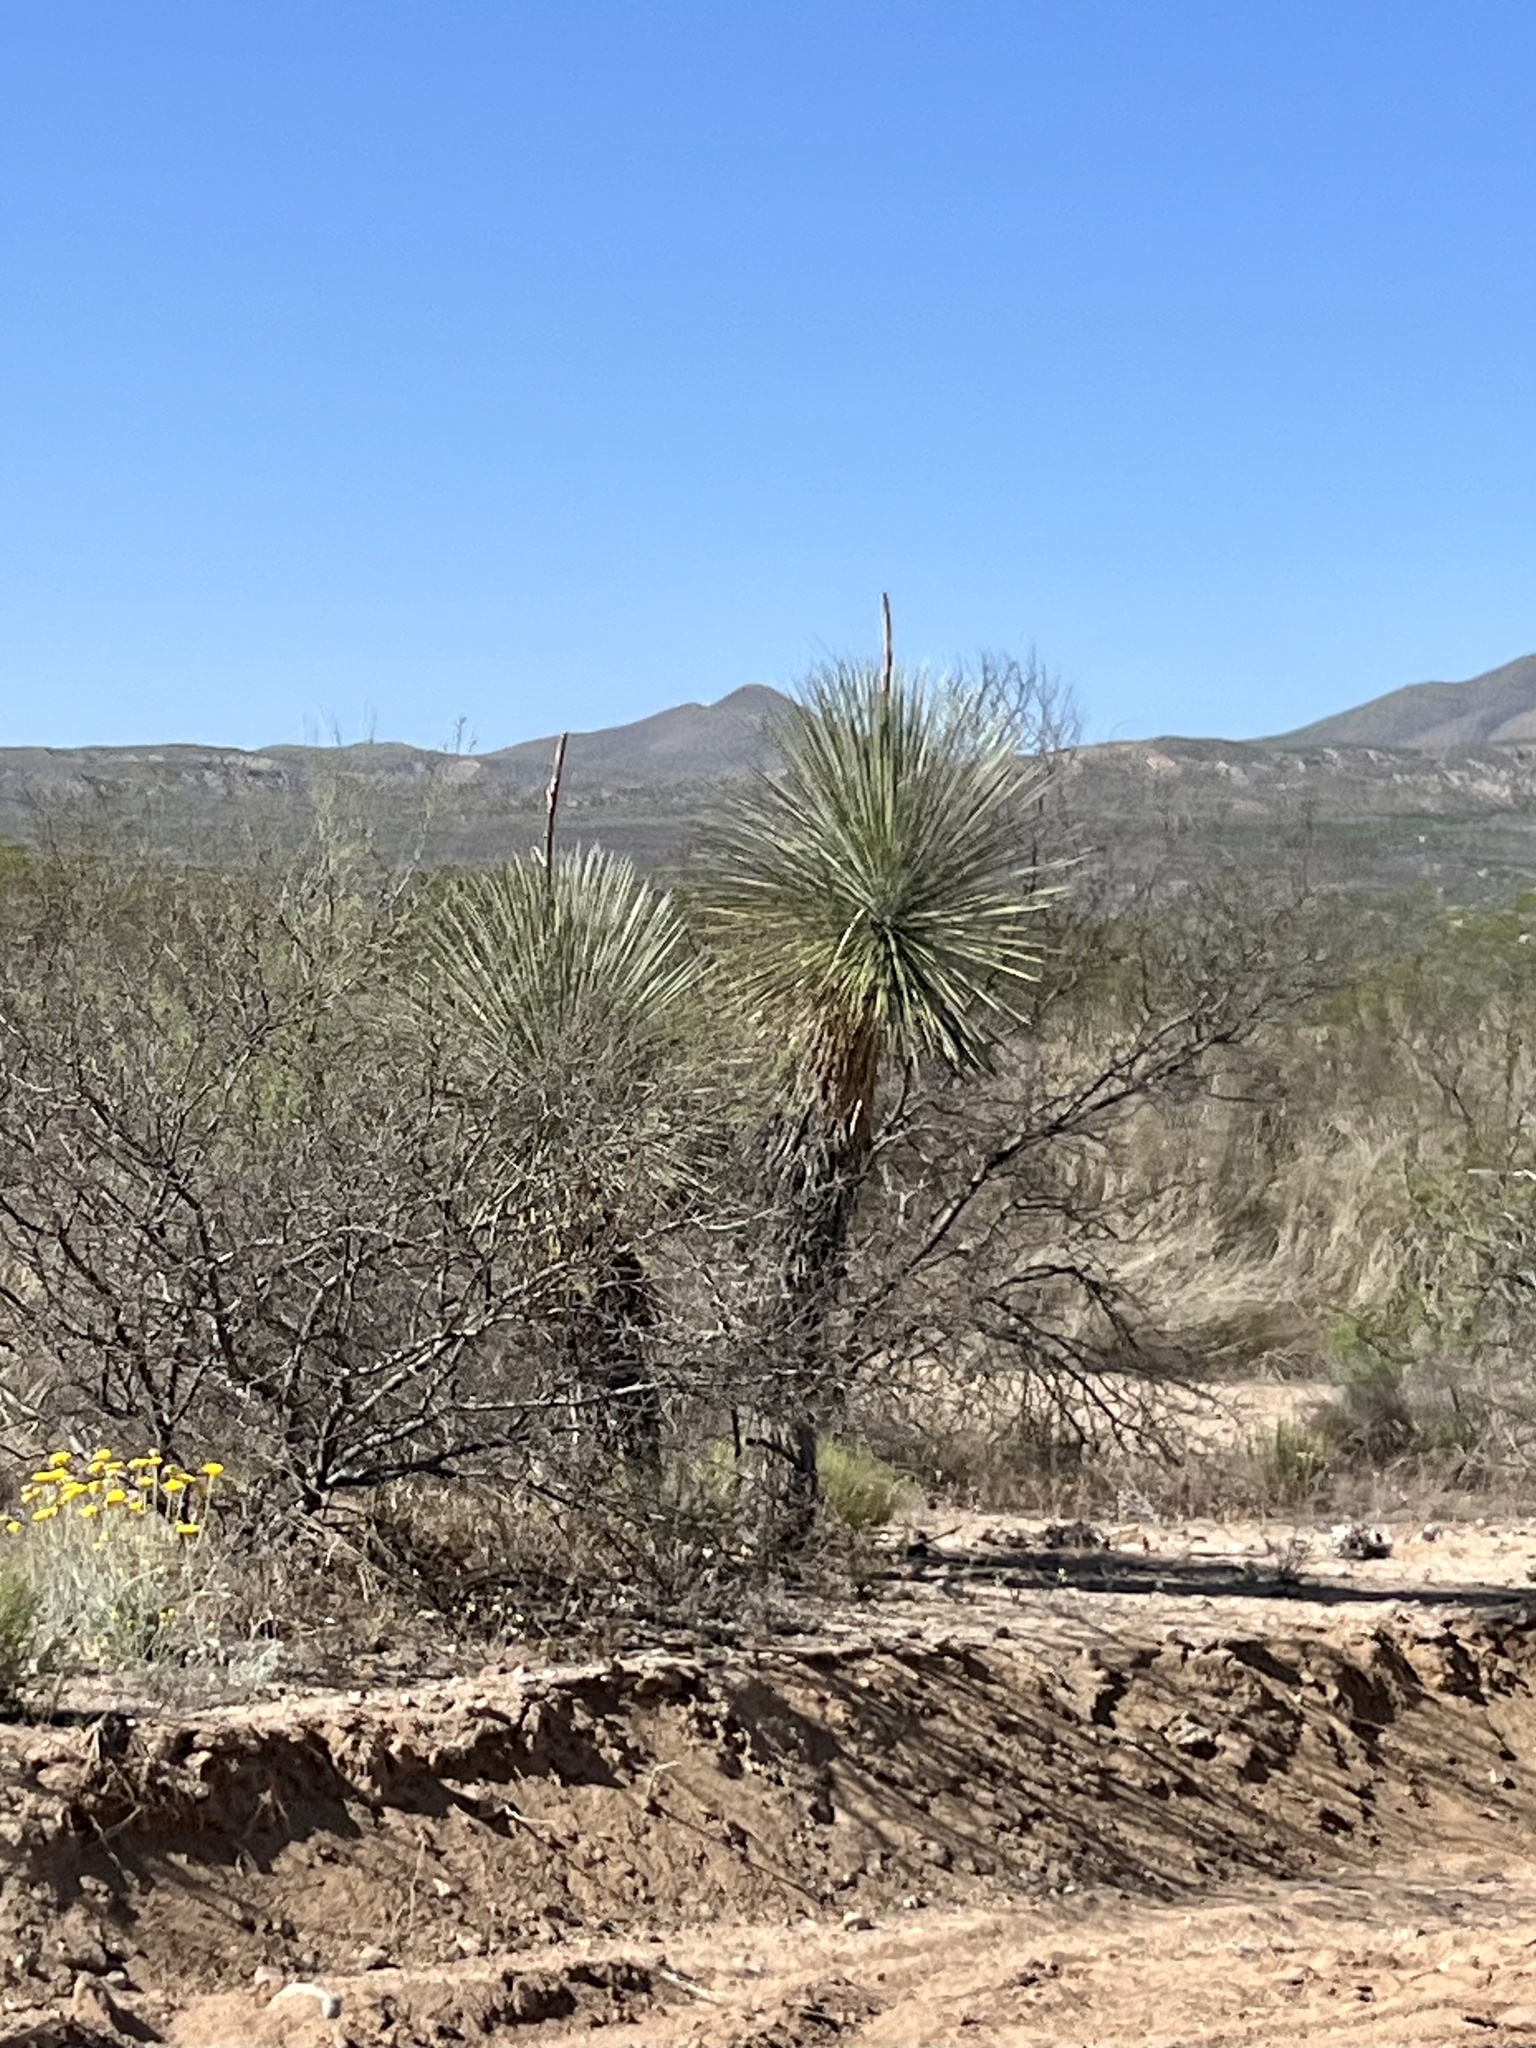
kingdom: Plantae
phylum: Tracheophyta
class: Liliopsida
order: Asparagales
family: Asparagaceae
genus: Yucca
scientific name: Yucca elata
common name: Palmella
